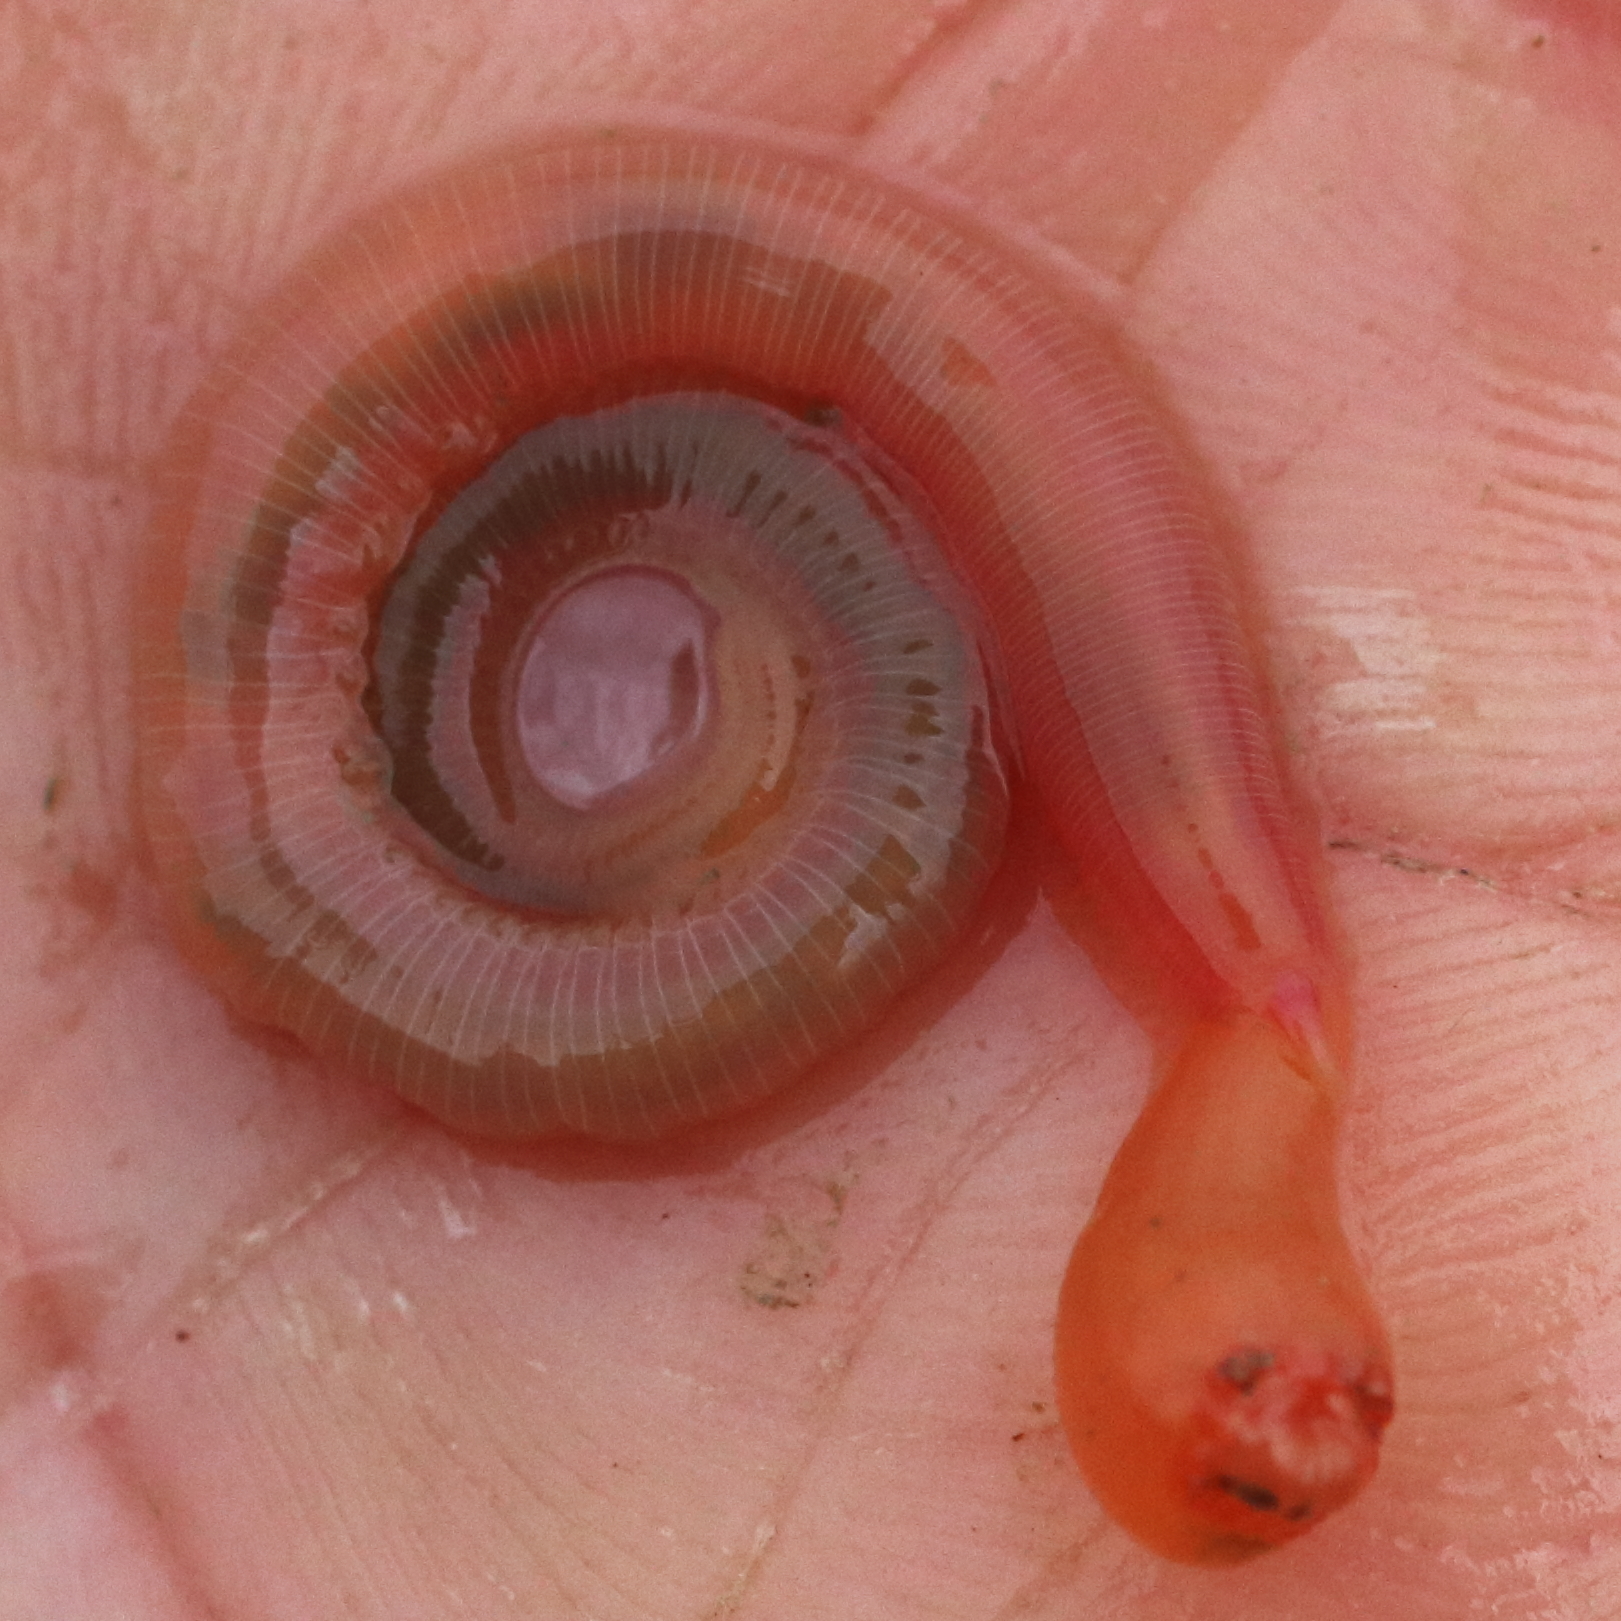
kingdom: Animalia
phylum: Annelida
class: Polychaeta
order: Phyllodocida
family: Glyceridae
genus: Hemipodia
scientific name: Hemipodia simplex
